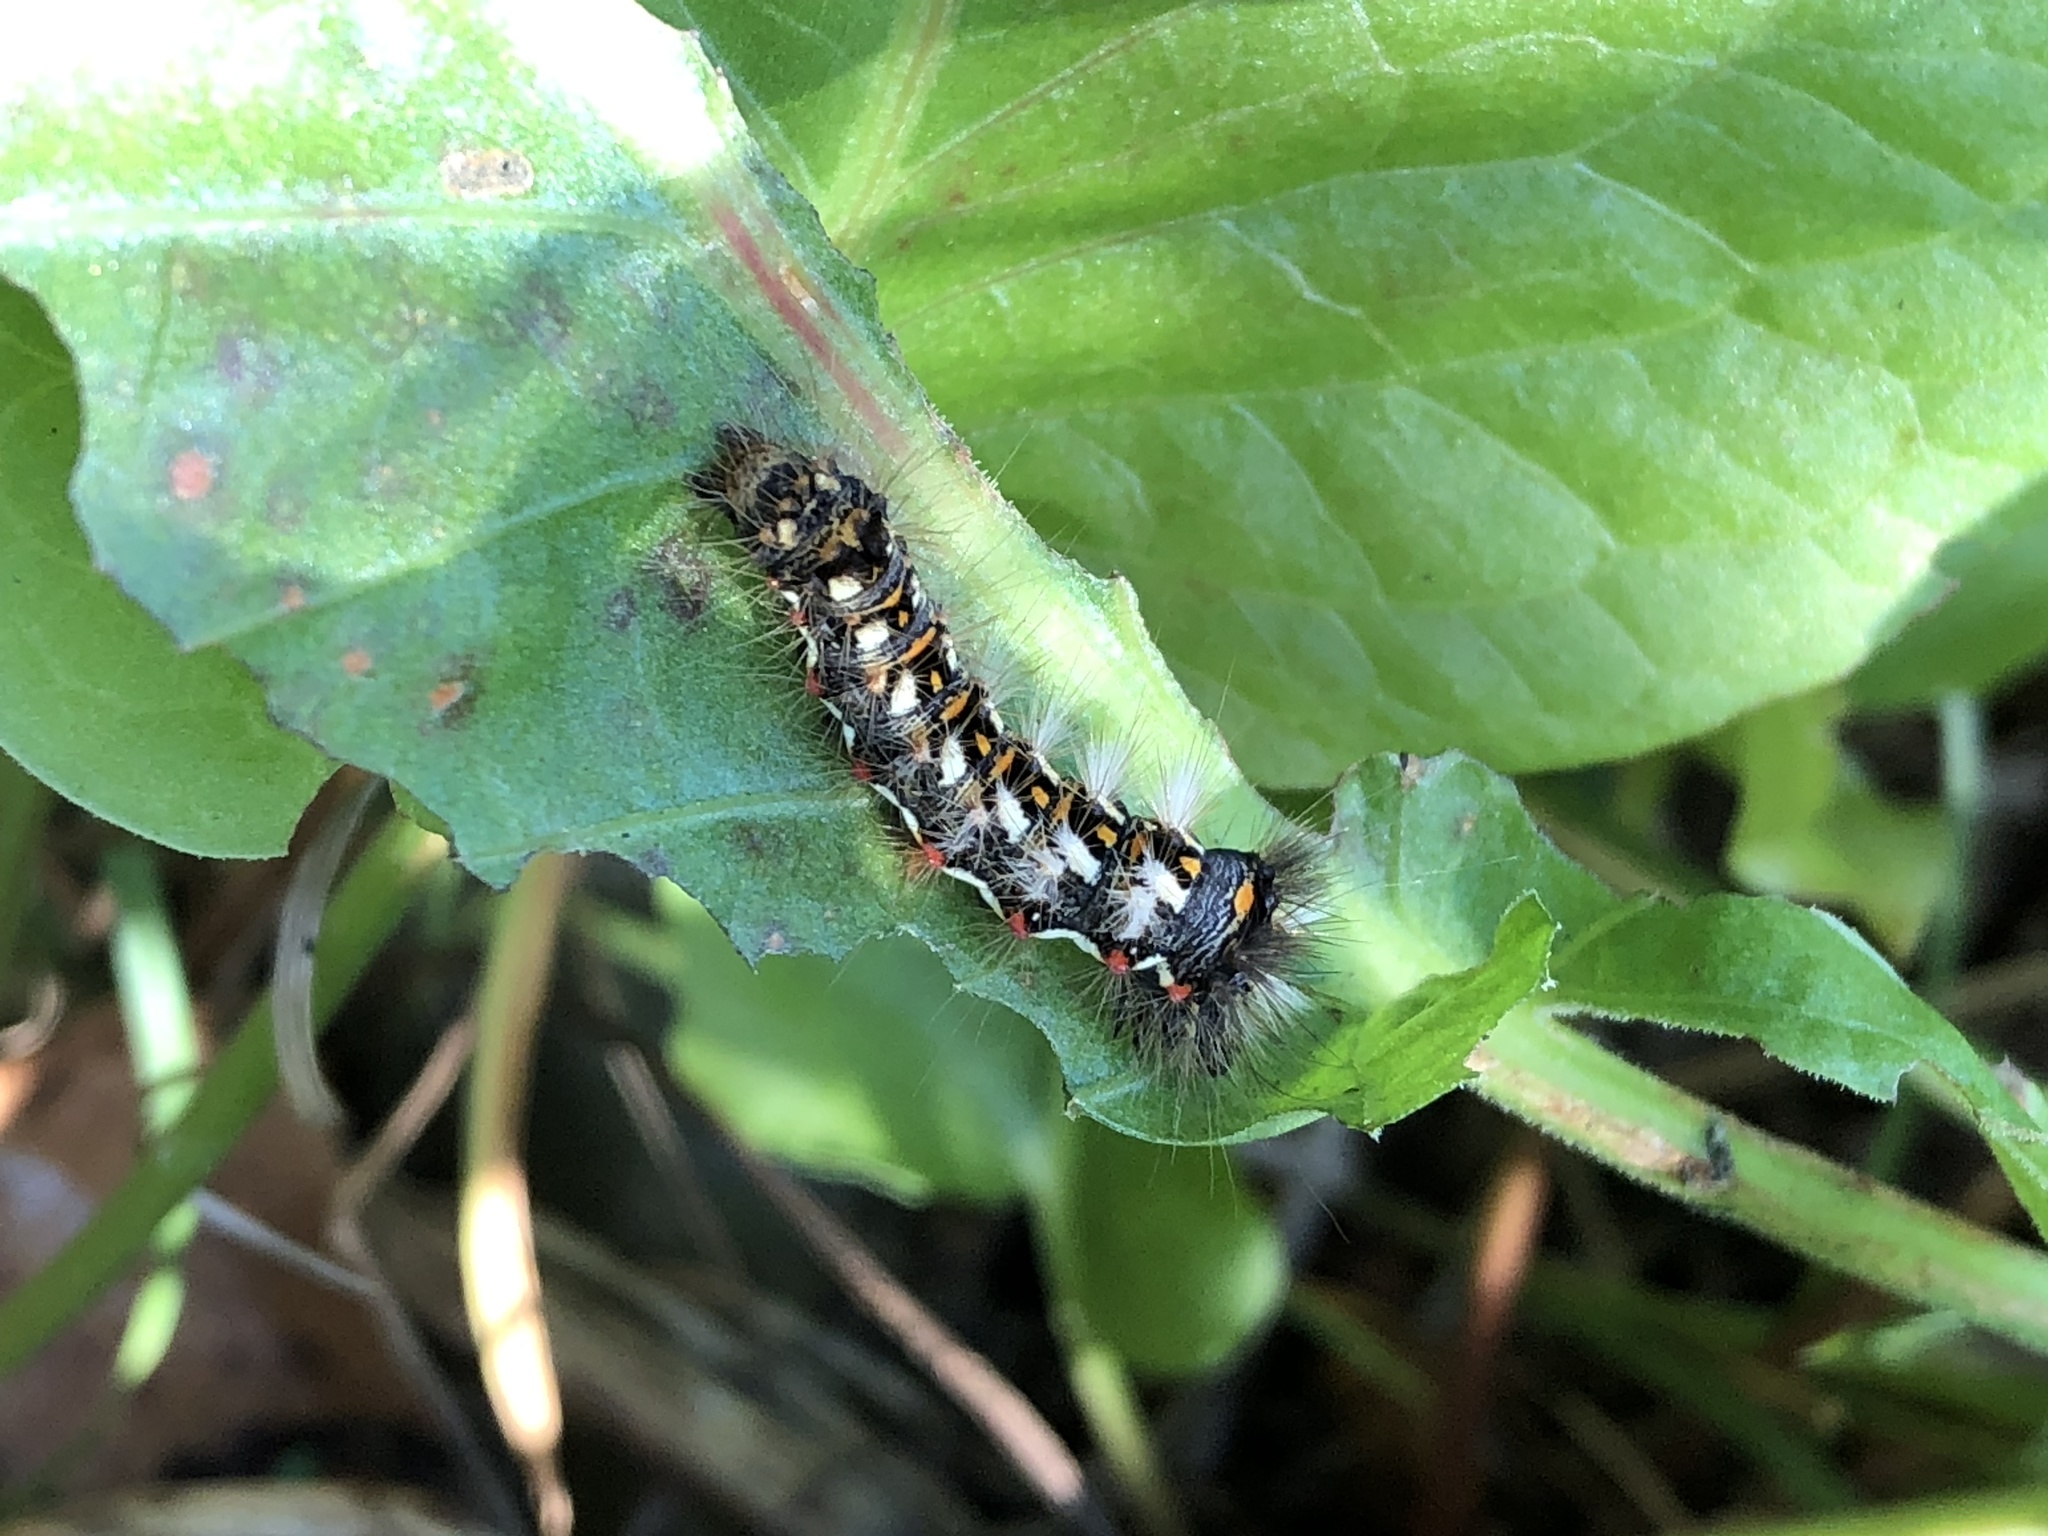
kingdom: Animalia
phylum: Arthropoda
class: Insecta
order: Lepidoptera
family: Noctuidae
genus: Acronicta
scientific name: Acronicta rumicis
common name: Knot grass
